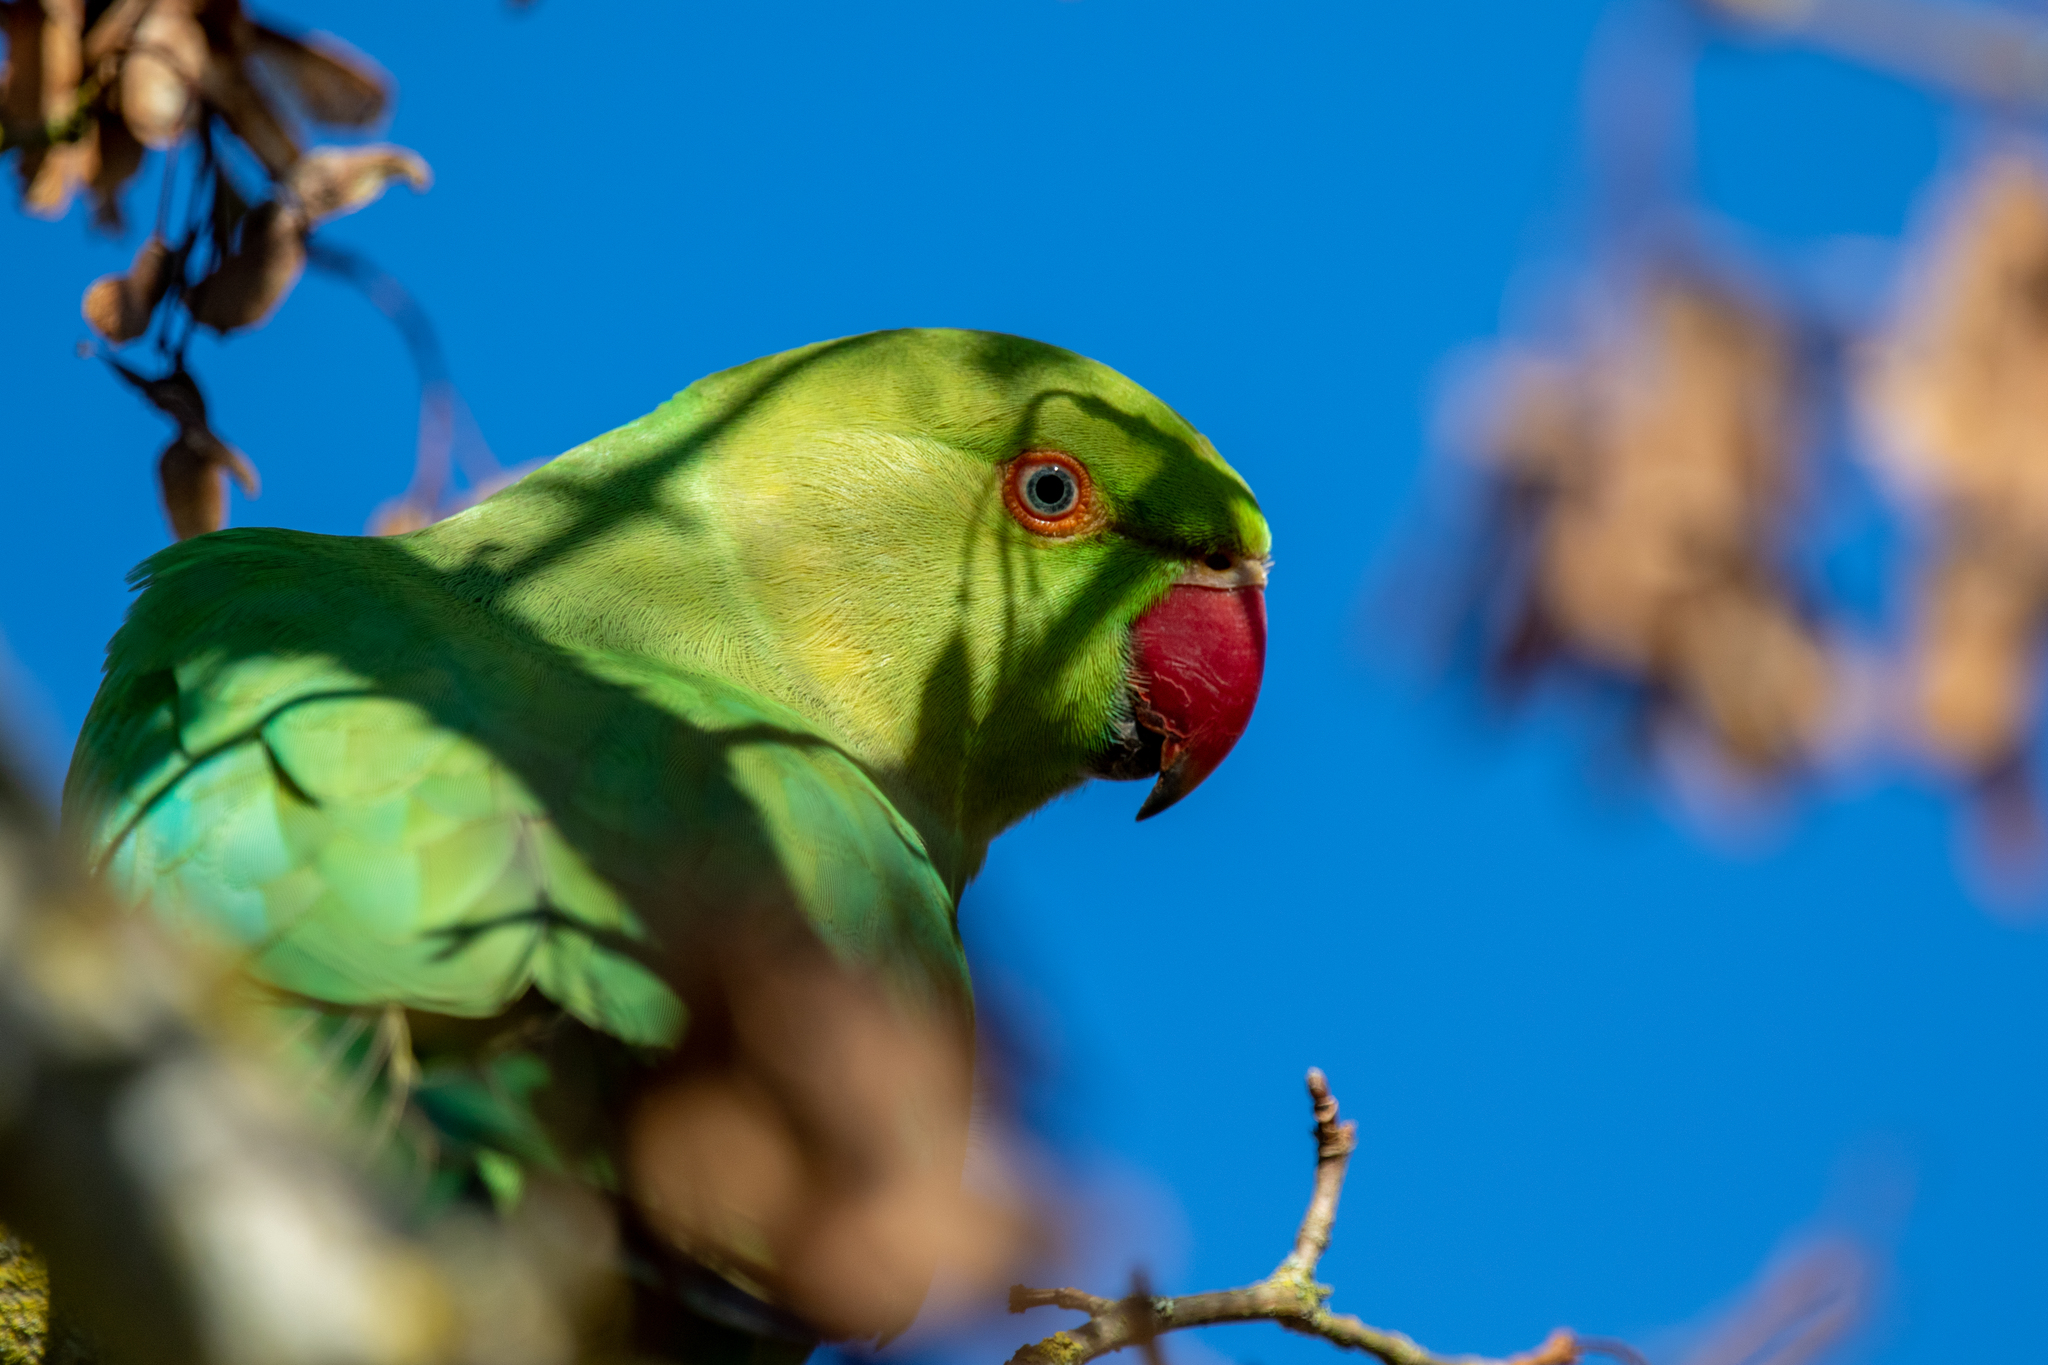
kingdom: Animalia
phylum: Chordata
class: Aves
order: Psittaciformes
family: Psittacidae
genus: Psittacula
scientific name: Psittacula krameri
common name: Rose-ringed parakeet
